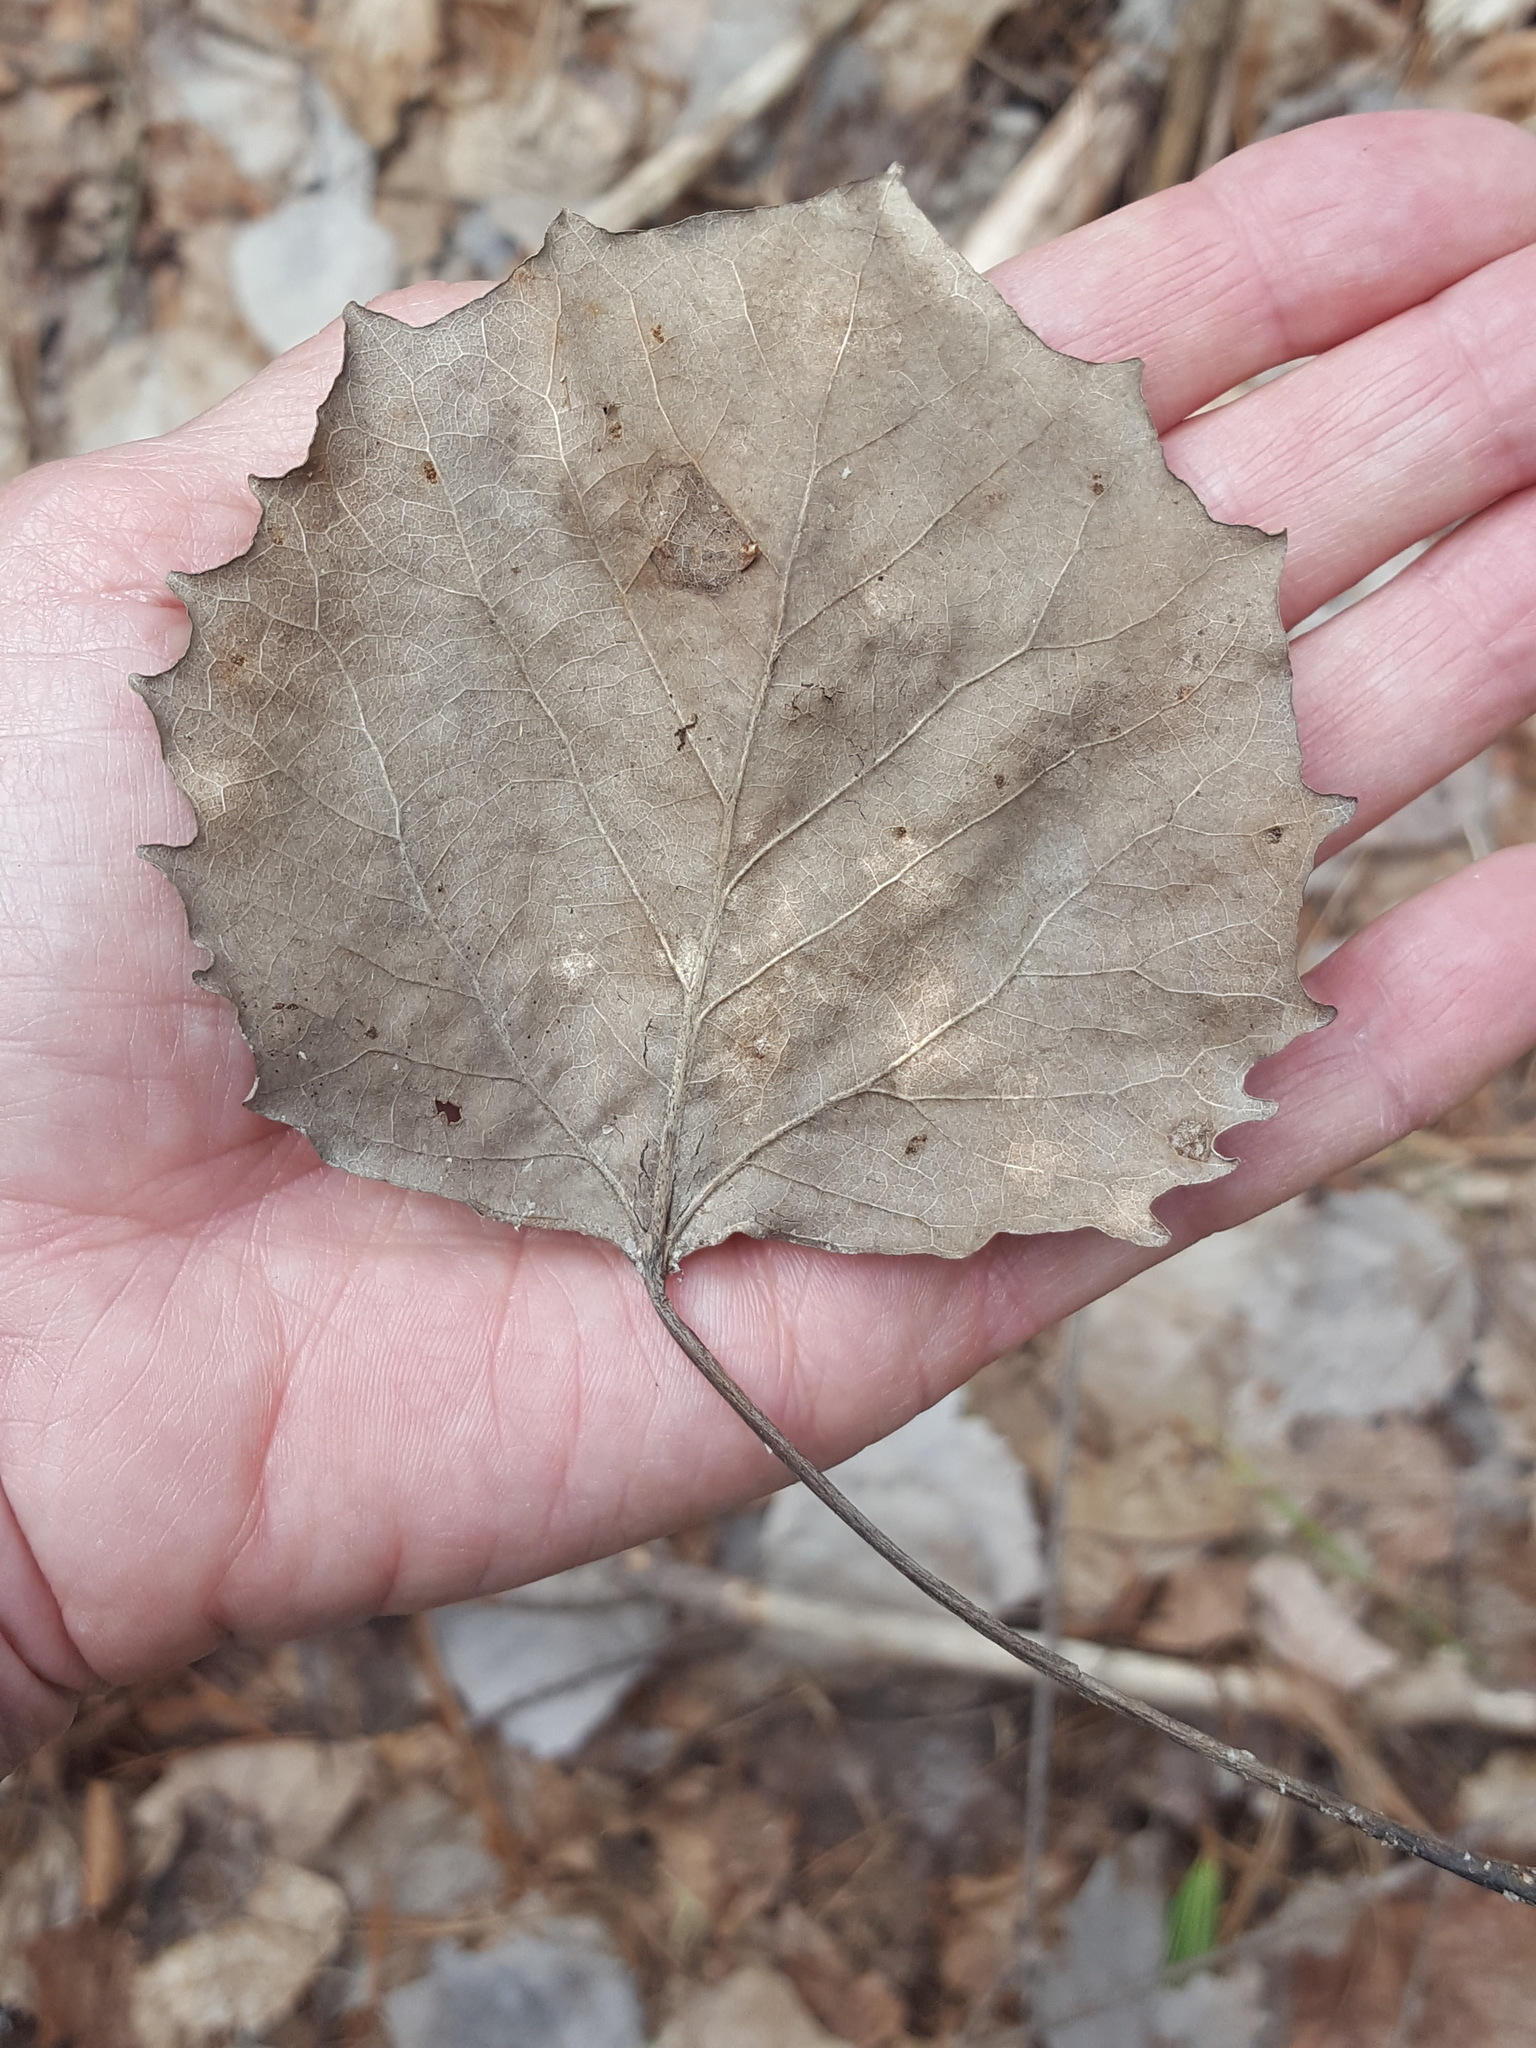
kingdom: Plantae
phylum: Tracheophyta
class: Magnoliopsida
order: Malpighiales
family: Salicaceae
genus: Populus
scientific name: Populus grandidentata
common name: Bigtooth aspen
